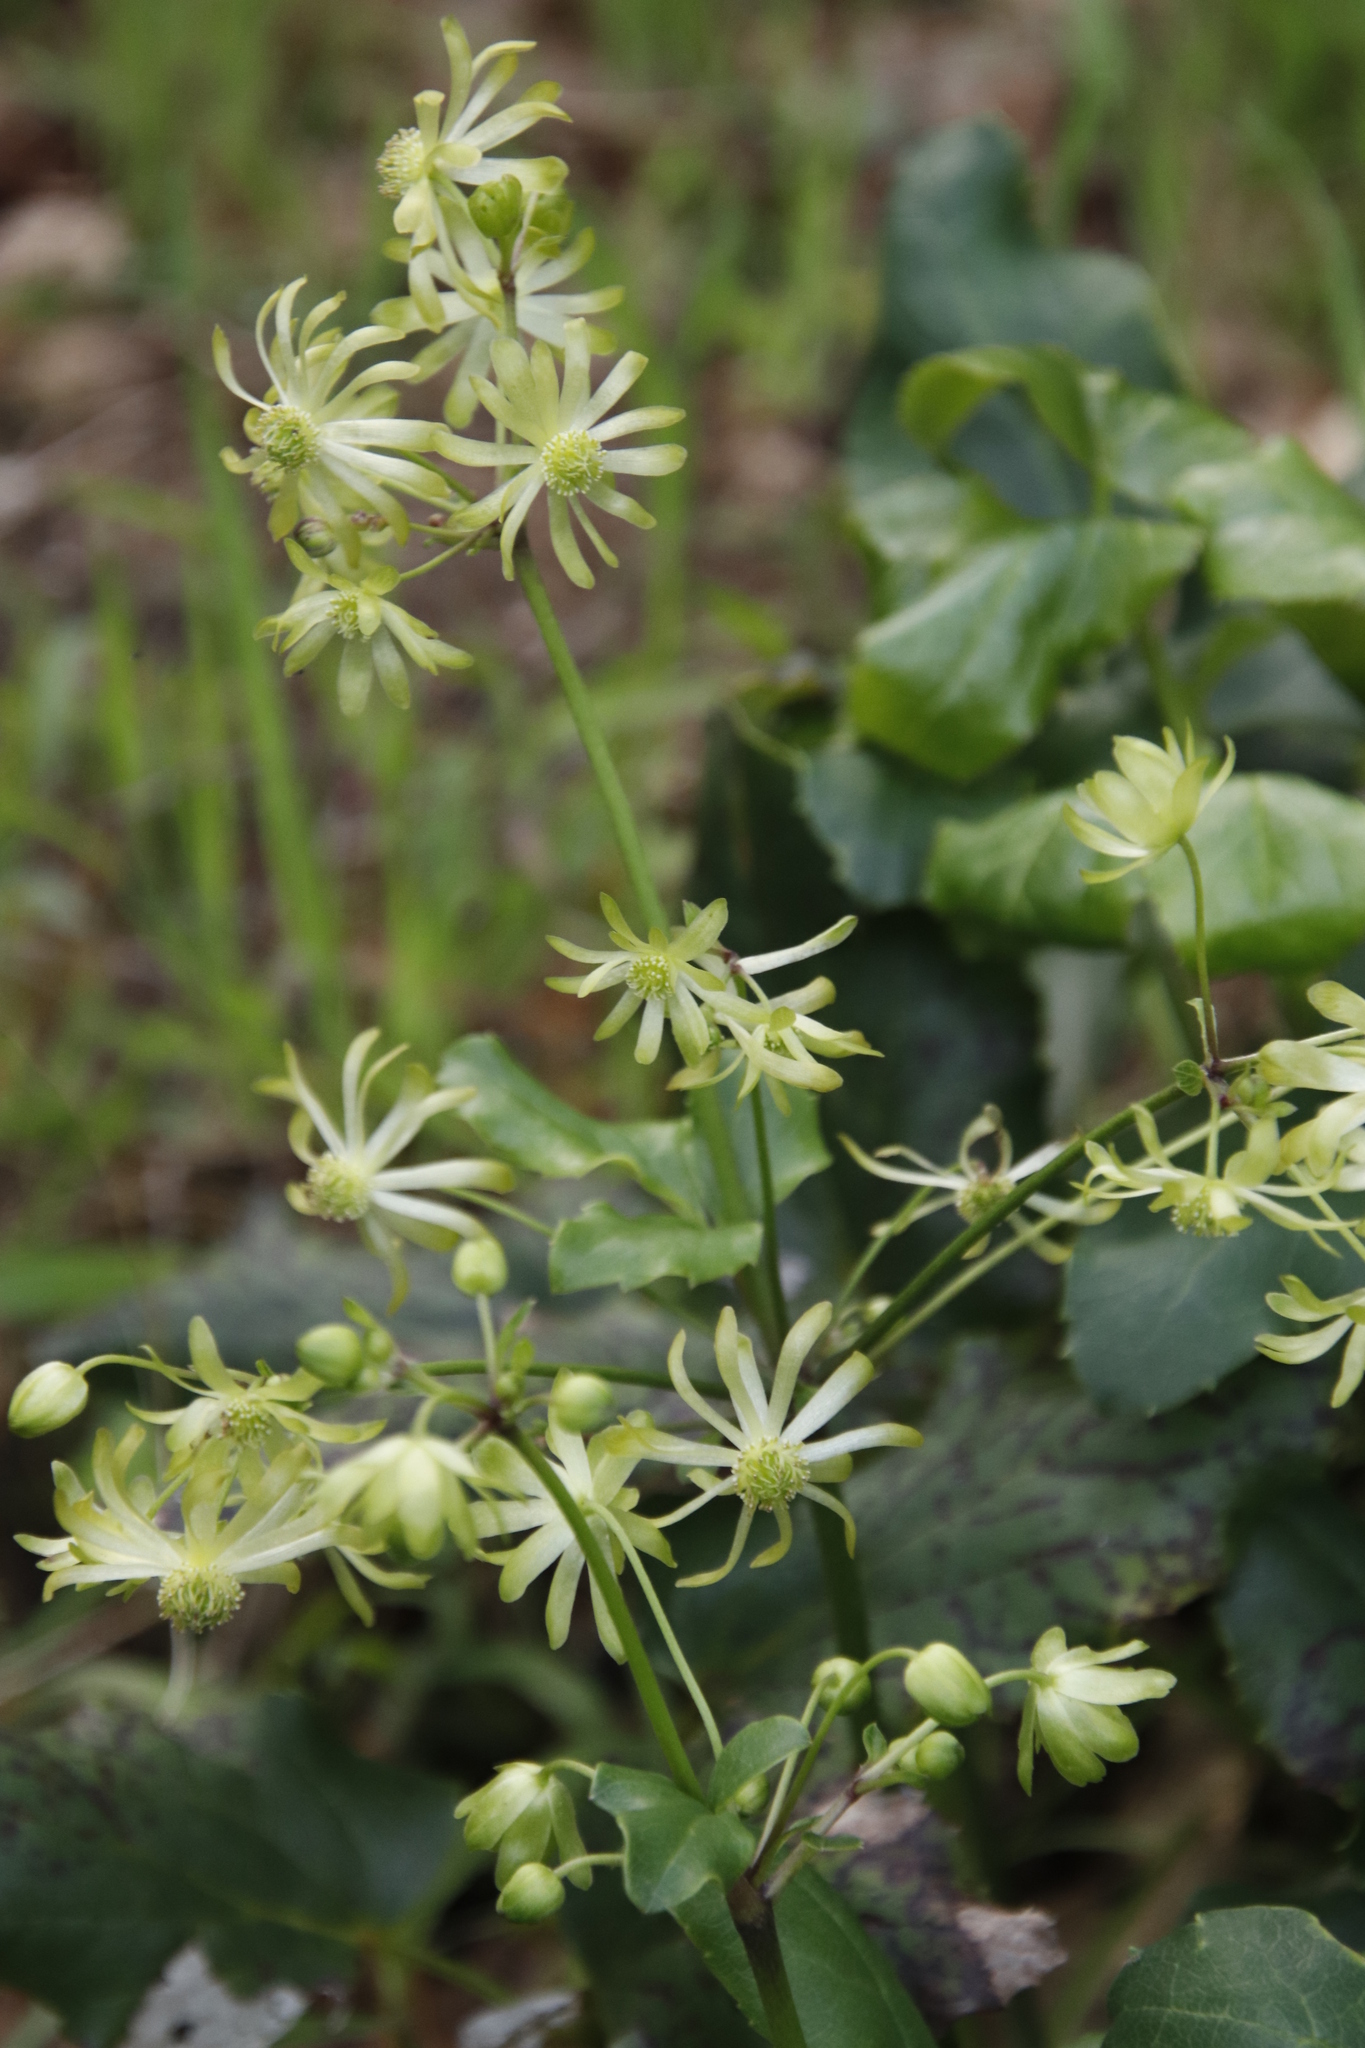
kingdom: Plantae
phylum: Tracheophyta
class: Magnoliopsida
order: Ranunculales
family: Ranunculaceae
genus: Knowltonia
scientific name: Knowltonia vesicatoria
